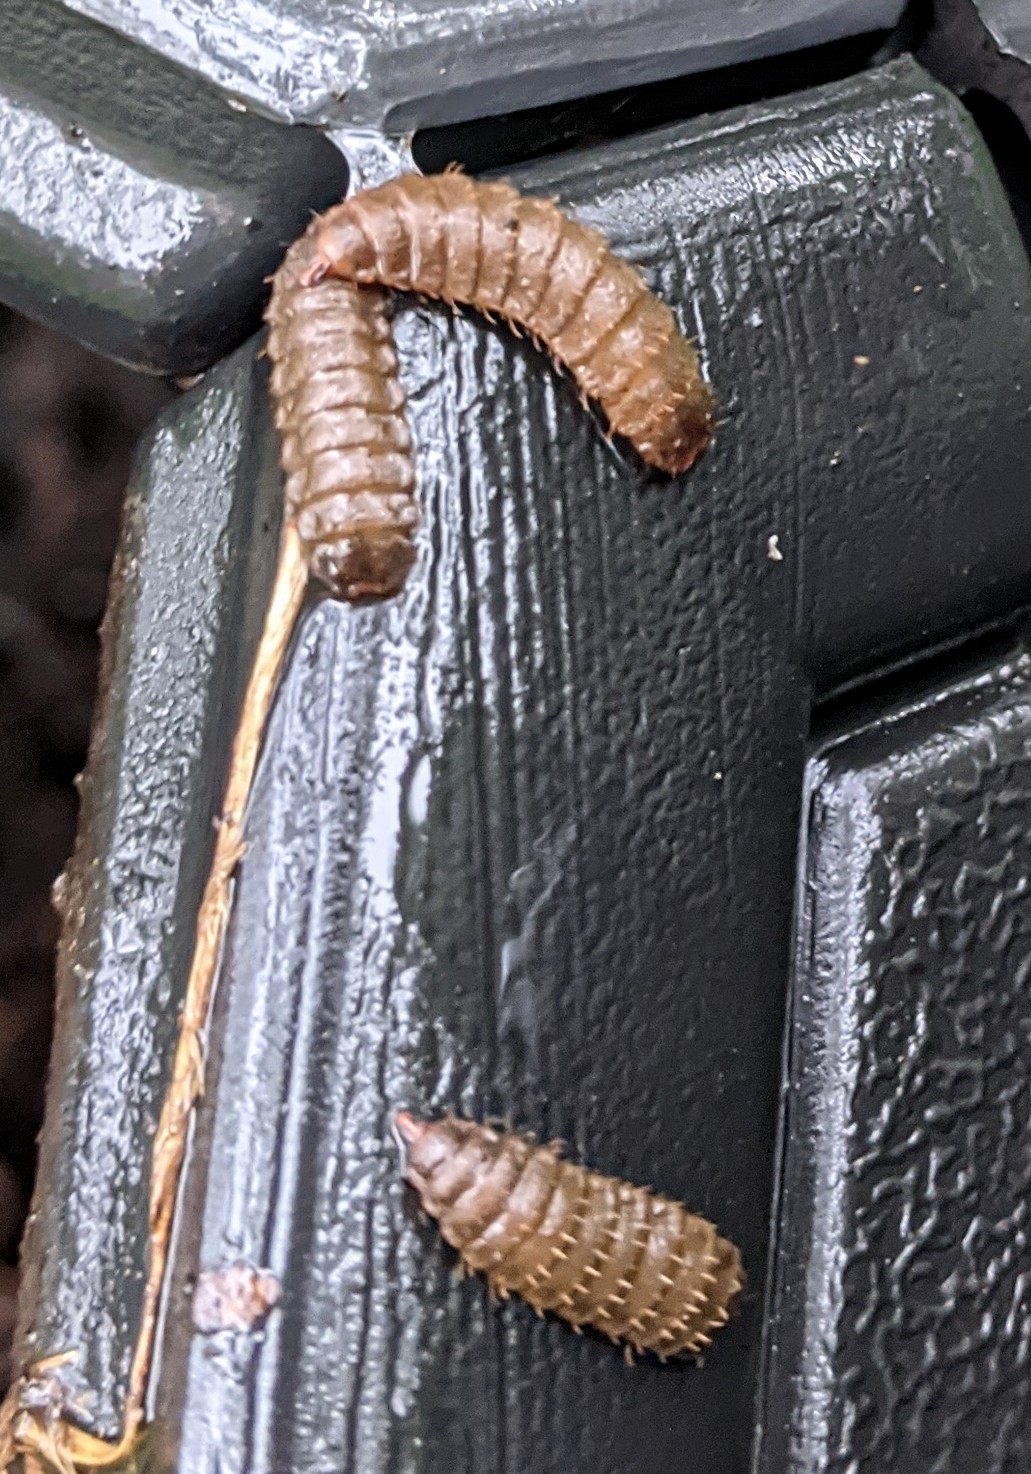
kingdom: Animalia
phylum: Arthropoda
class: Insecta
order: Diptera
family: Stratiomyidae
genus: Hermetia
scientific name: Hermetia illucens
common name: Black soldier fly
